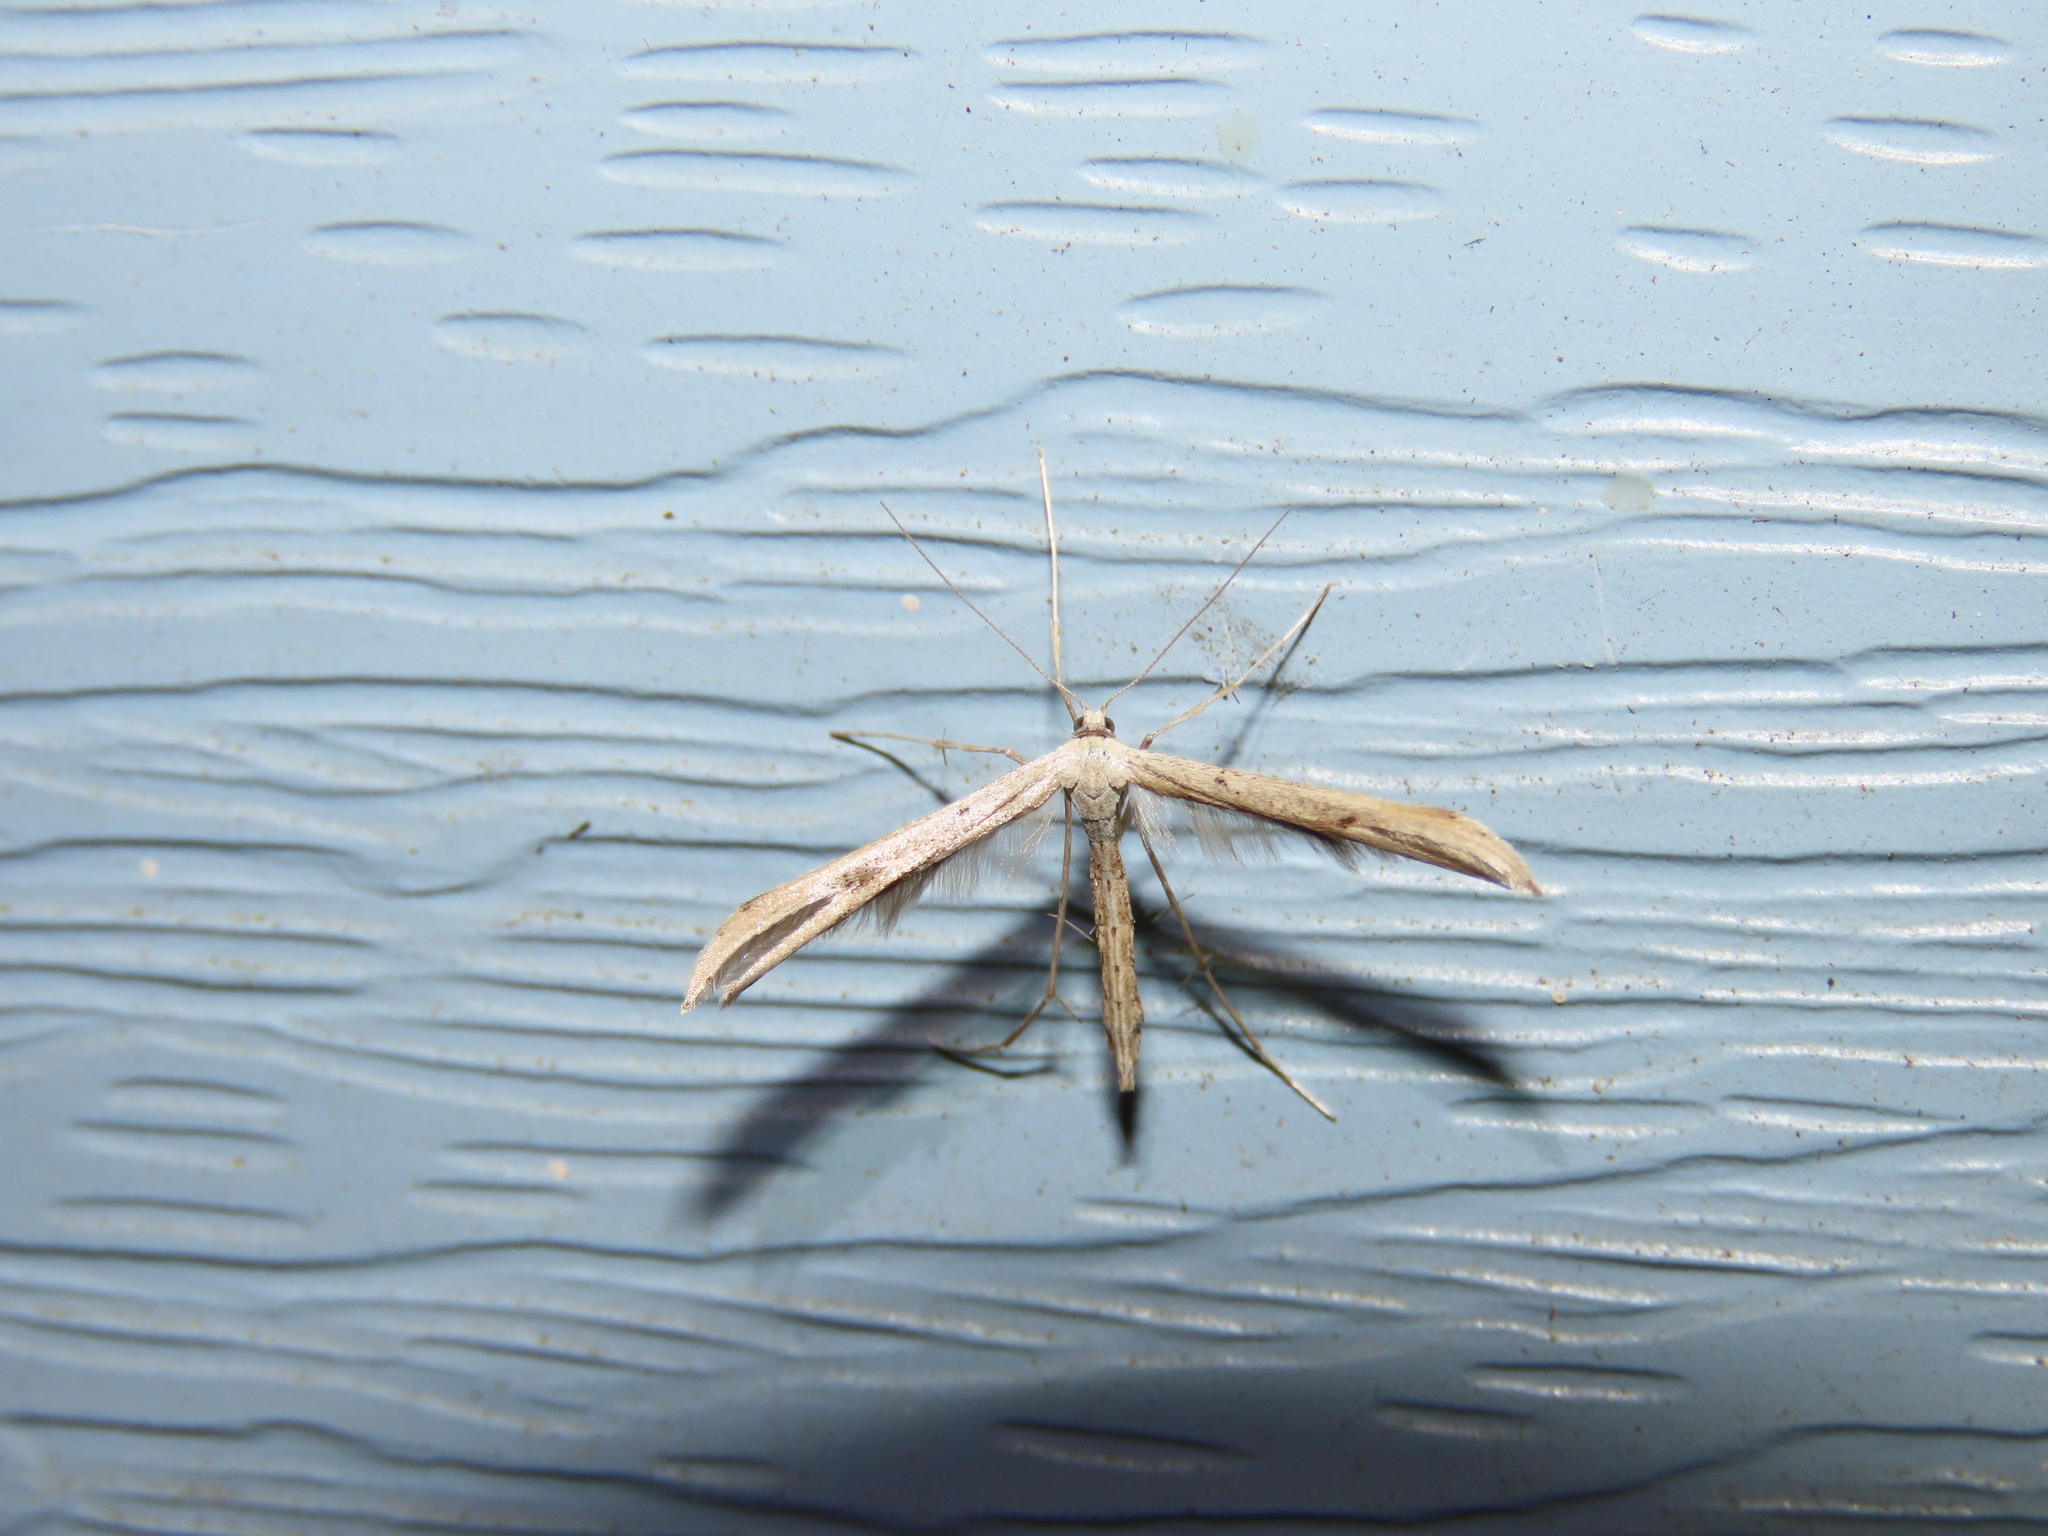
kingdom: Animalia
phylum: Arthropoda
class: Insecta
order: Lepidoptera
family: Pterophoridae
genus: Emmelina
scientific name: Emmelina monodactyla
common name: Common plume
